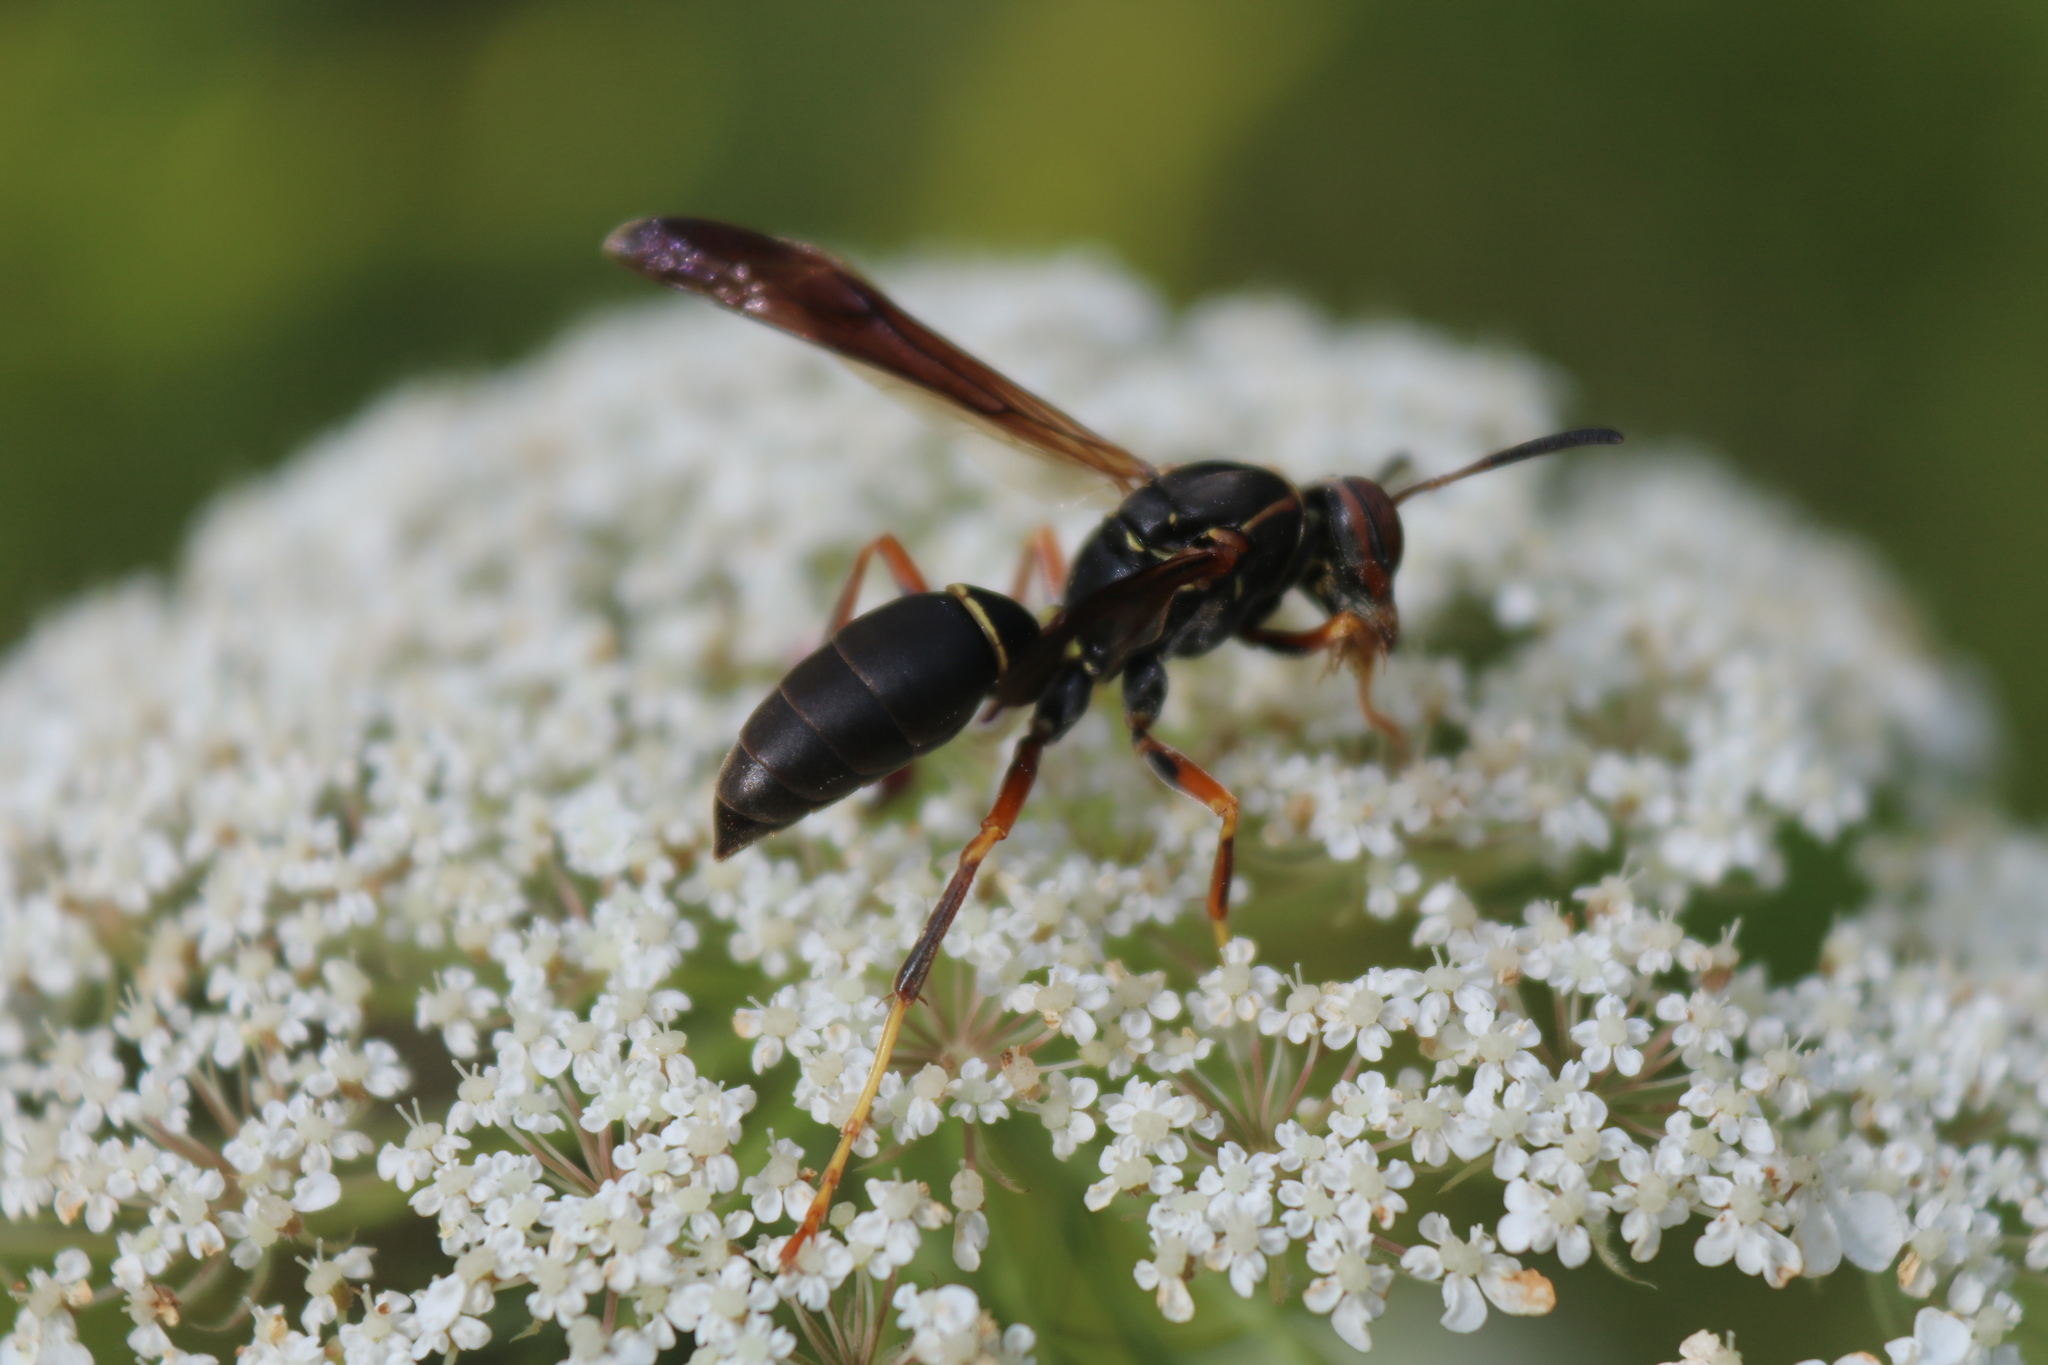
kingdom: Animalia
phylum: Arthropoda
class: Insecta
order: Hymenoptera
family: Eumenidae
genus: Polistes
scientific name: Polistes fuscatus
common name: Dark paper wasp
